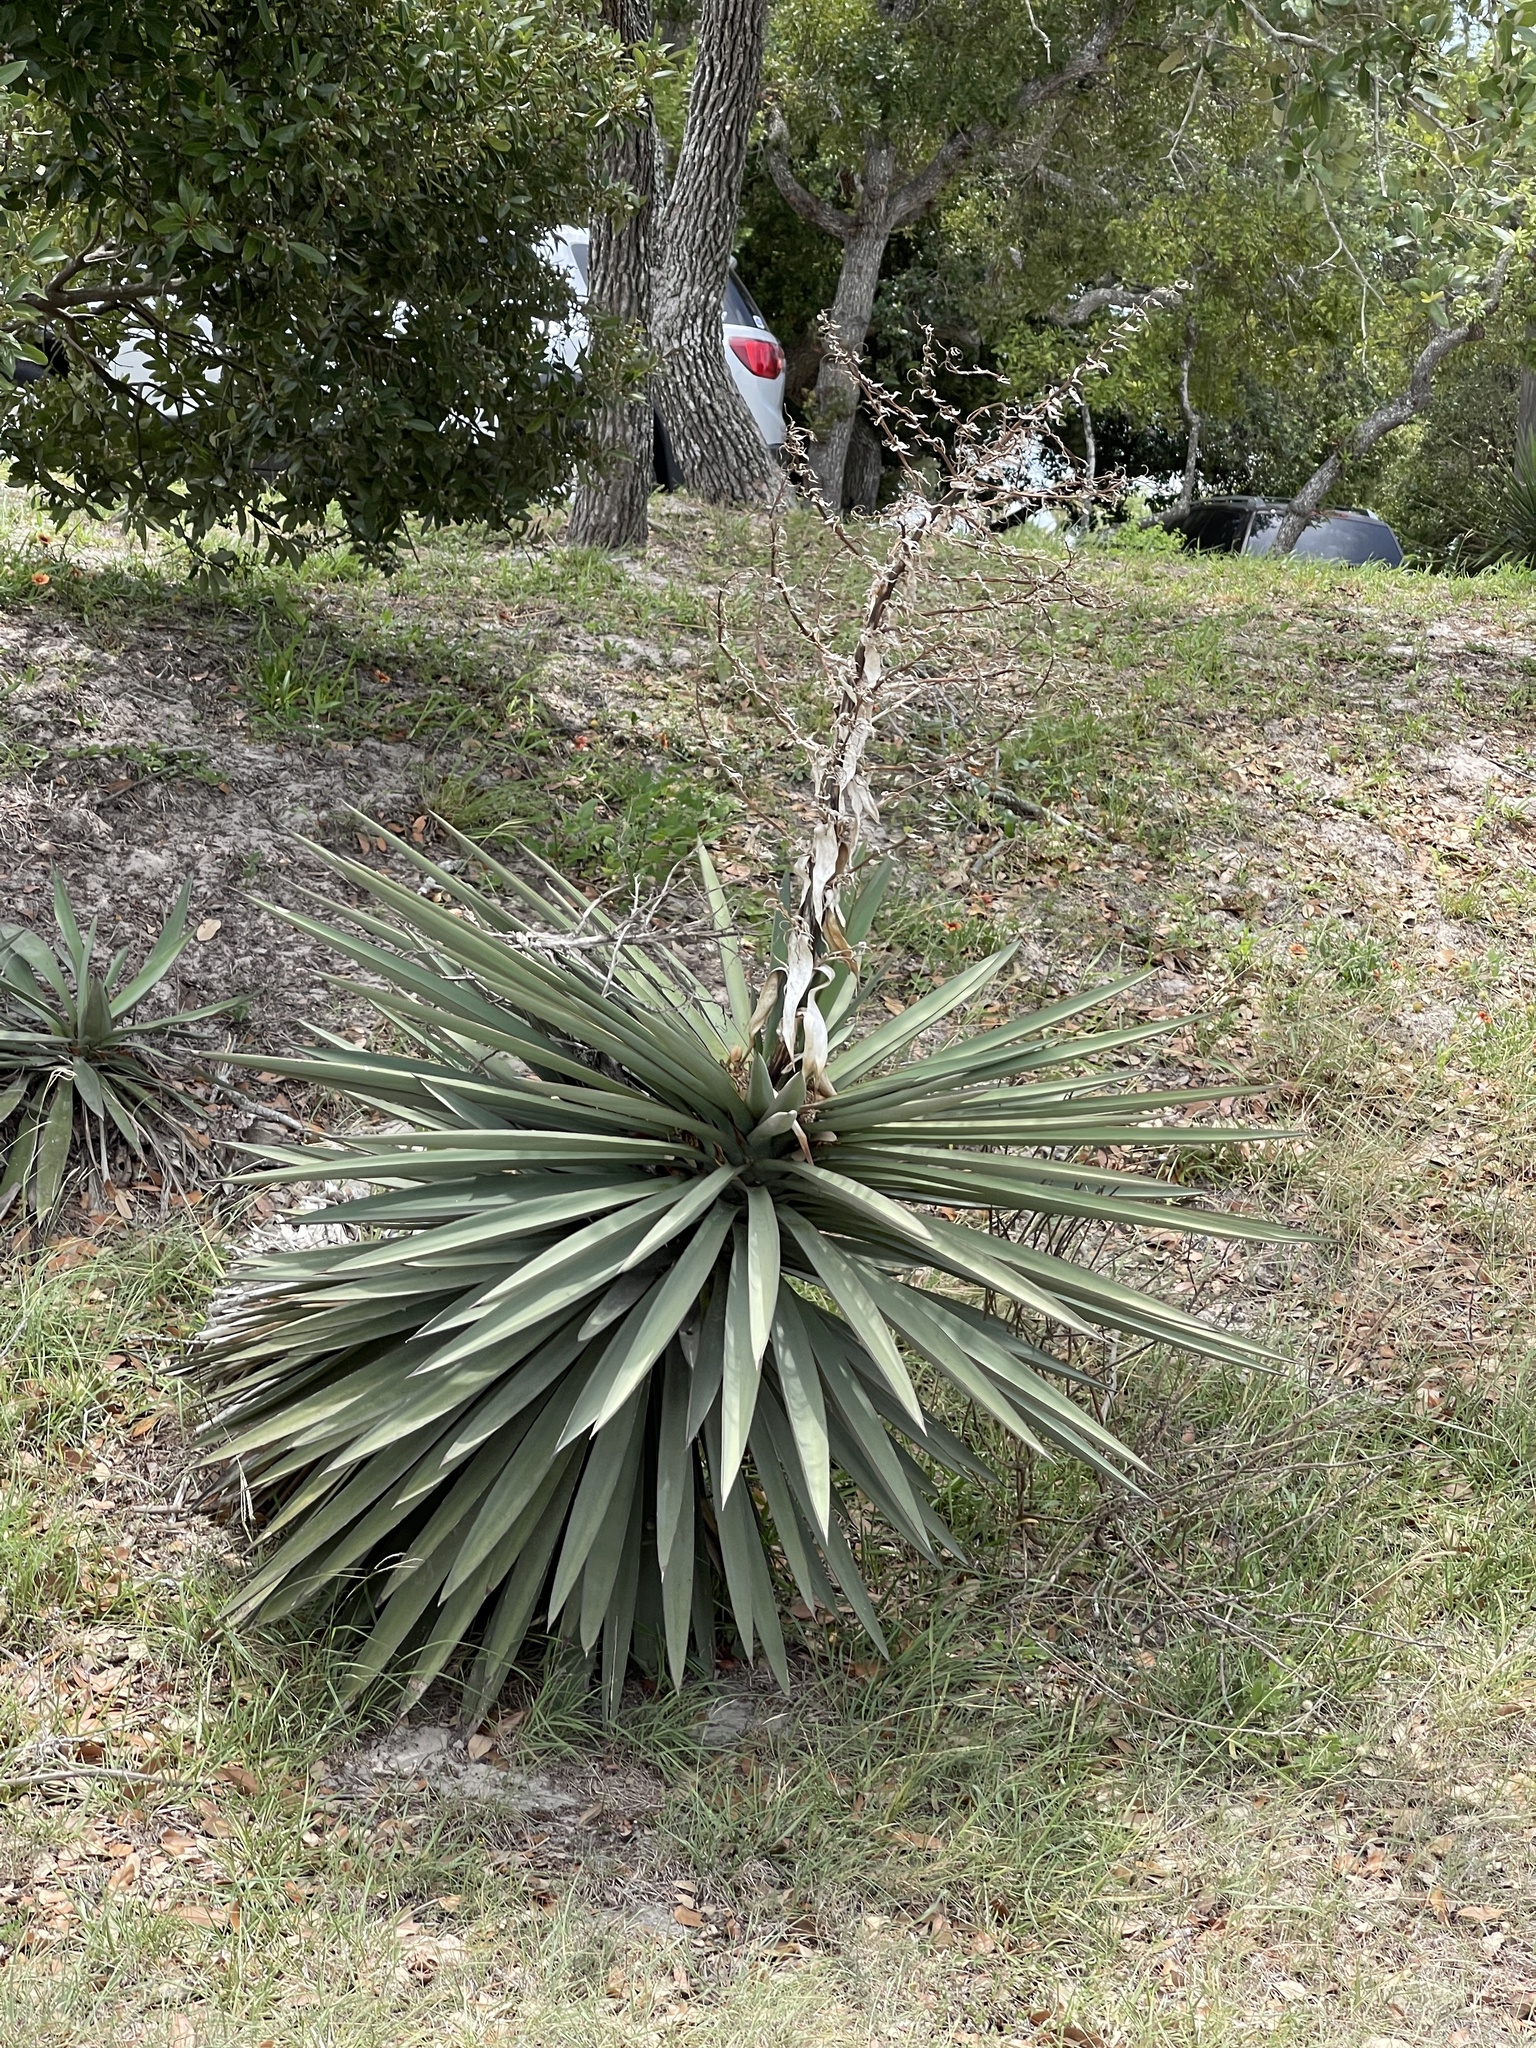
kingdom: Plantae
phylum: Tracheophyta
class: Liliopsida
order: Asparagales
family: Asparagaceae
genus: Yucca
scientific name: Yucca treculiana
